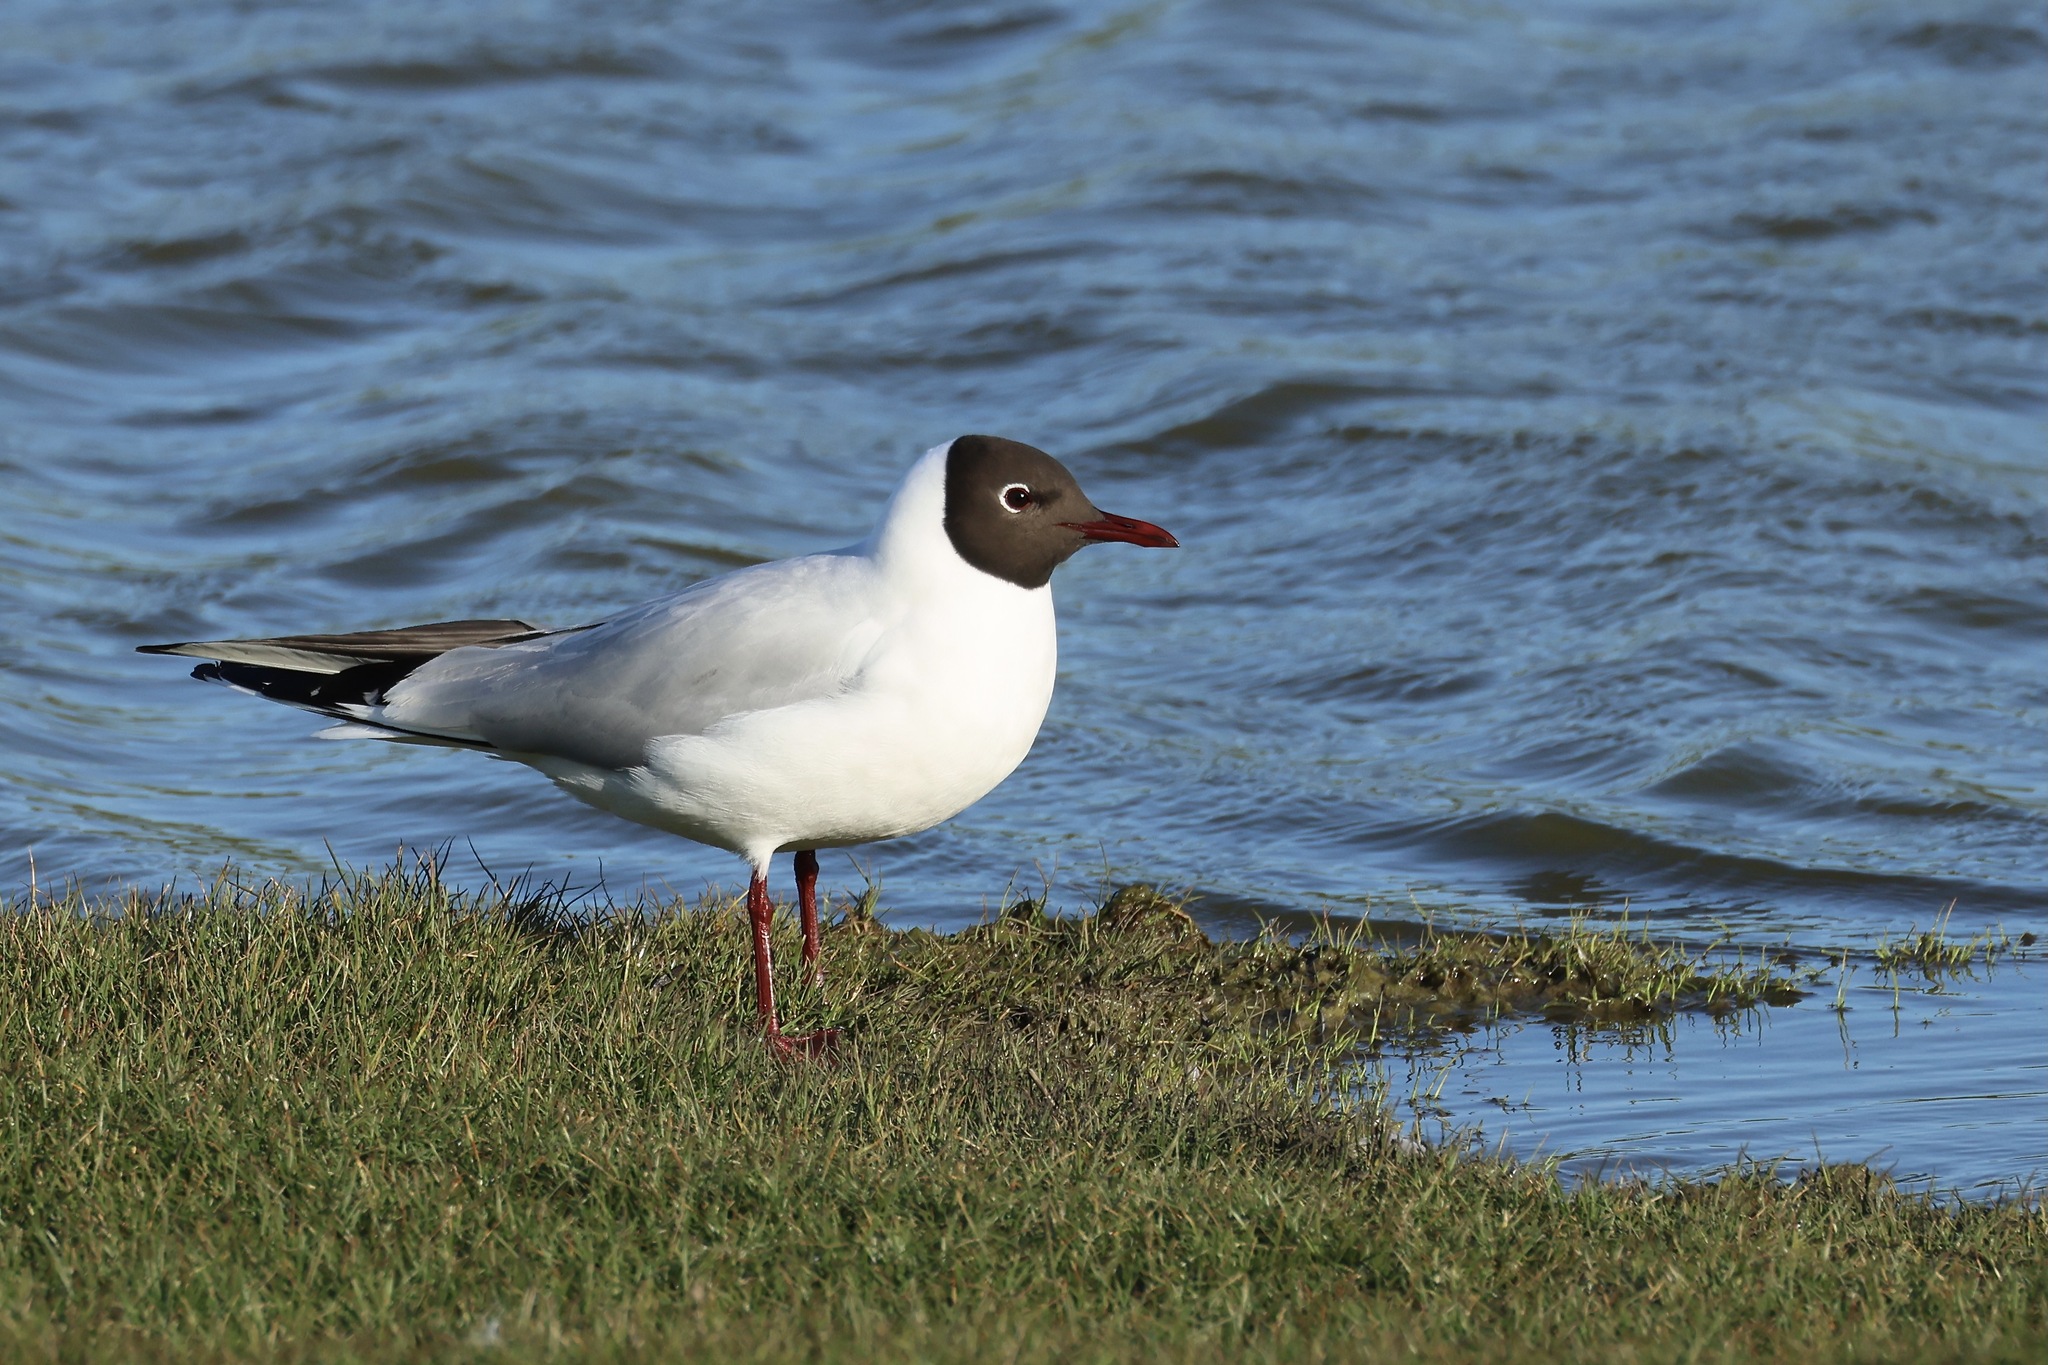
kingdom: Animalia
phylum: Chordata
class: Aves
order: Charadriiformes
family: Laridae
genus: Chroicocephalus
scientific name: Chroicocephalus ridibundus
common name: Black-headed gull
